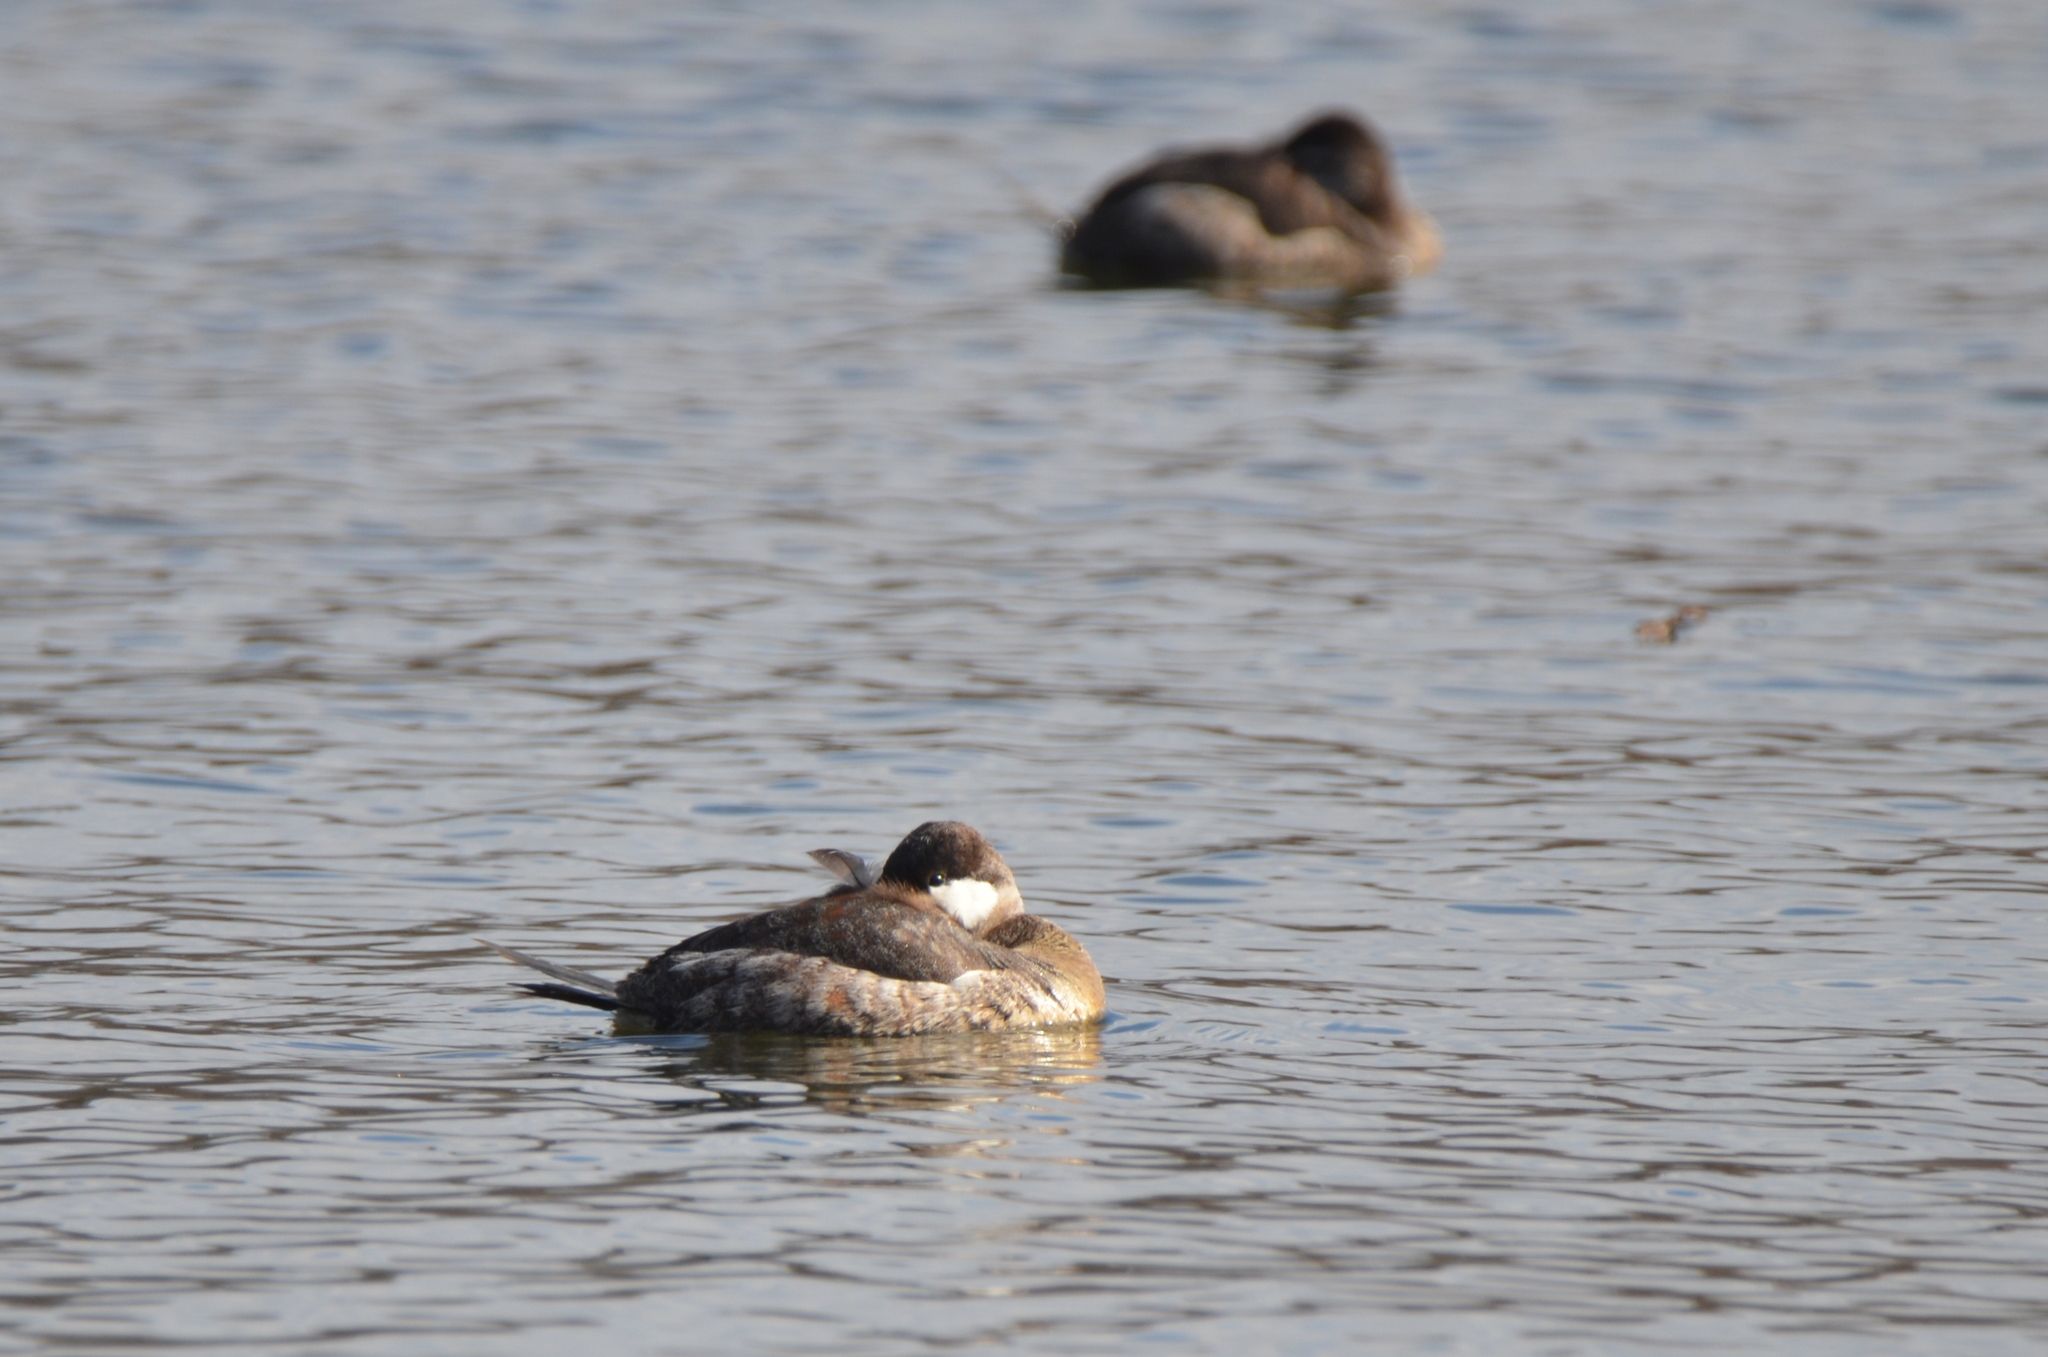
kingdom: Animalia
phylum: Chordata
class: Aves
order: Anseriformes
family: Anatidae
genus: Oxyura
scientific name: Oxyura jamaicensis
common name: Ruddy duck
